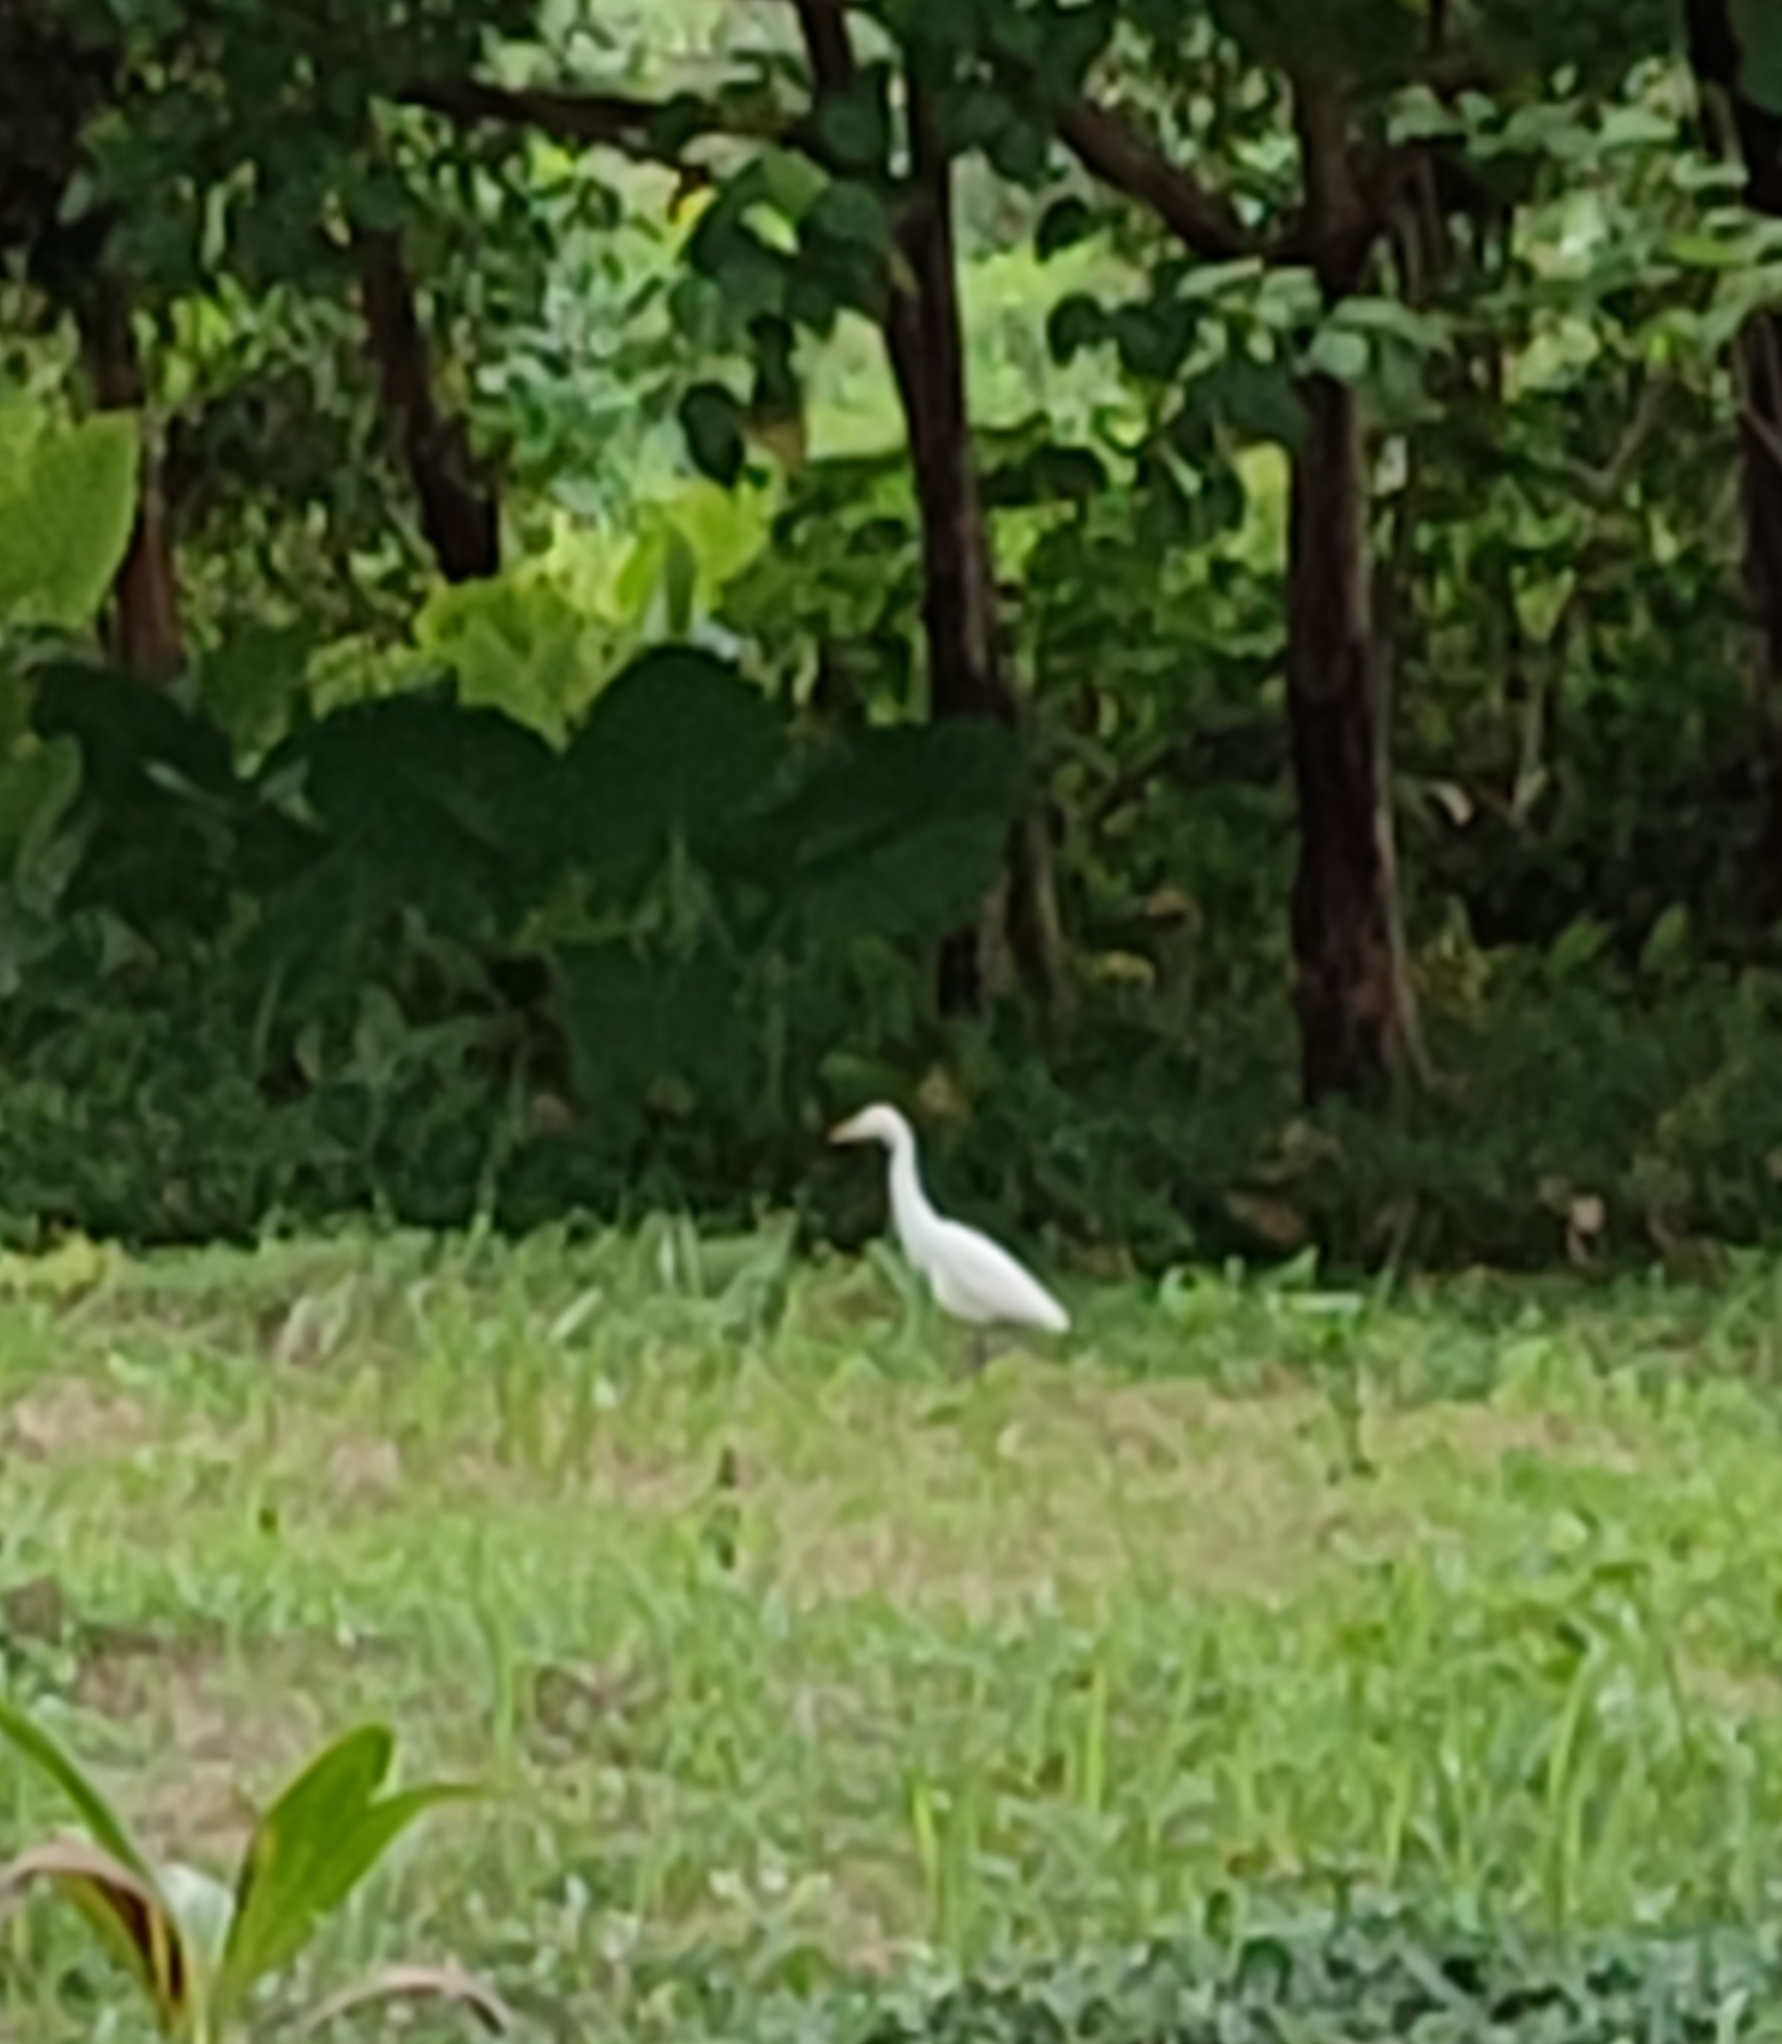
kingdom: Animalia
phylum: Chordata
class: Aves
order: Pelecaniformes
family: Ardeidae
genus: Bubulcus
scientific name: Bubulcus coromandus
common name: Eastern cattle egret
